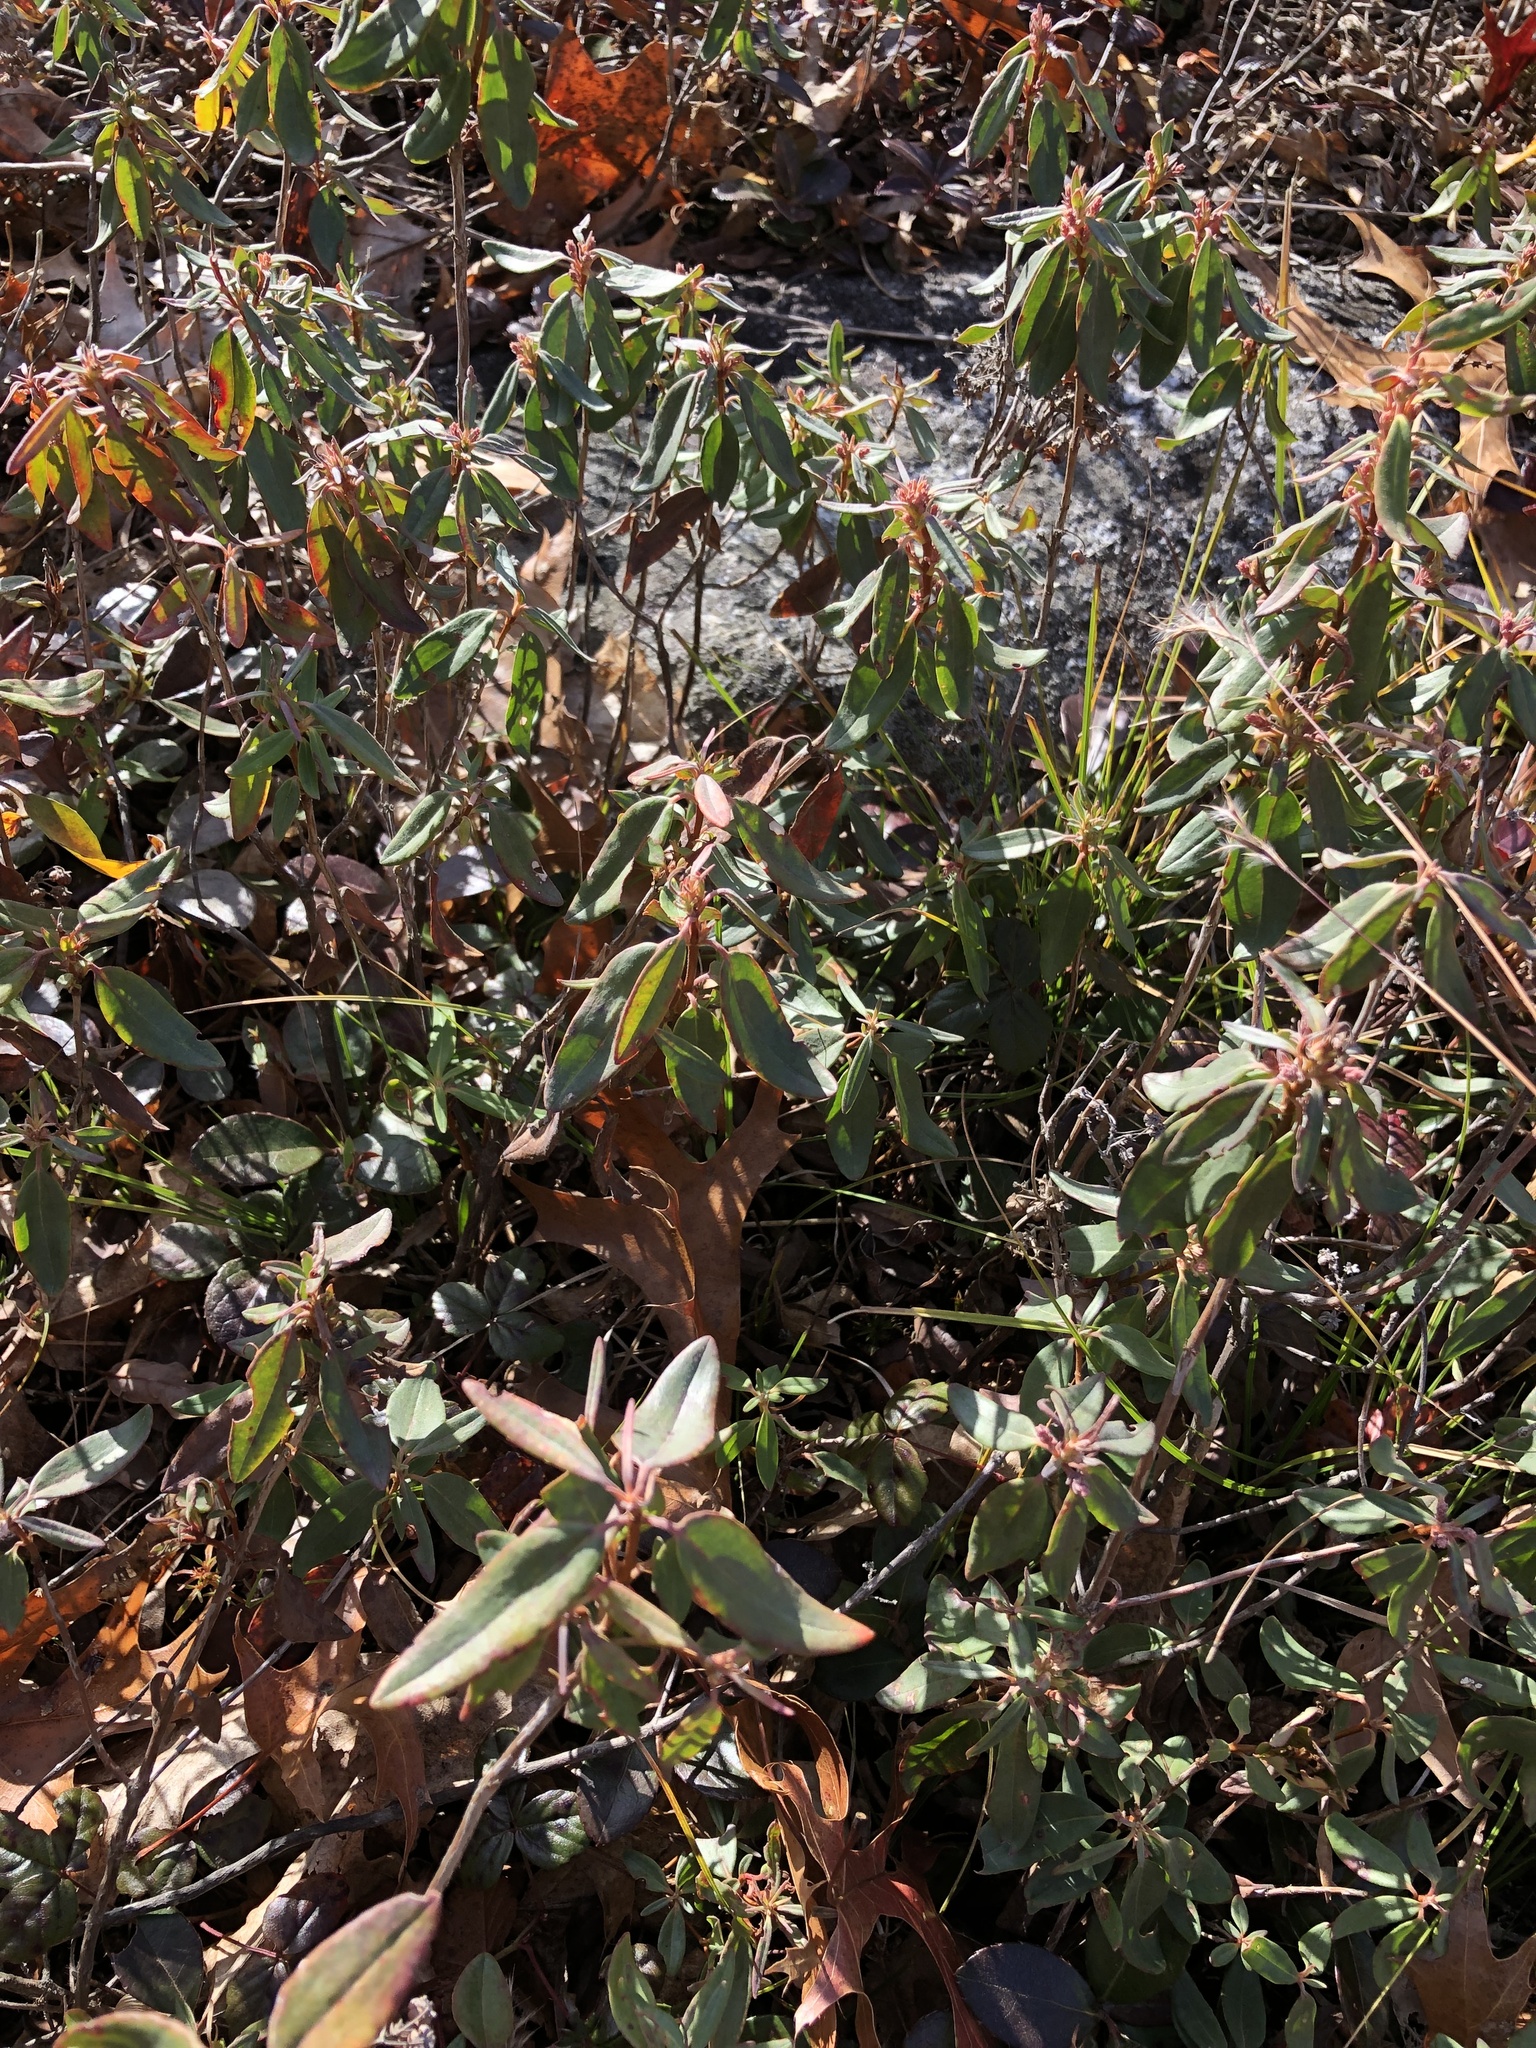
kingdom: Plantae
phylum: Tracheophyta
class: Magnoliopsida
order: Ericales
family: Ericaceae
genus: Kalmia
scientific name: Kalmia angustifolia
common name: Sheep-laurel
